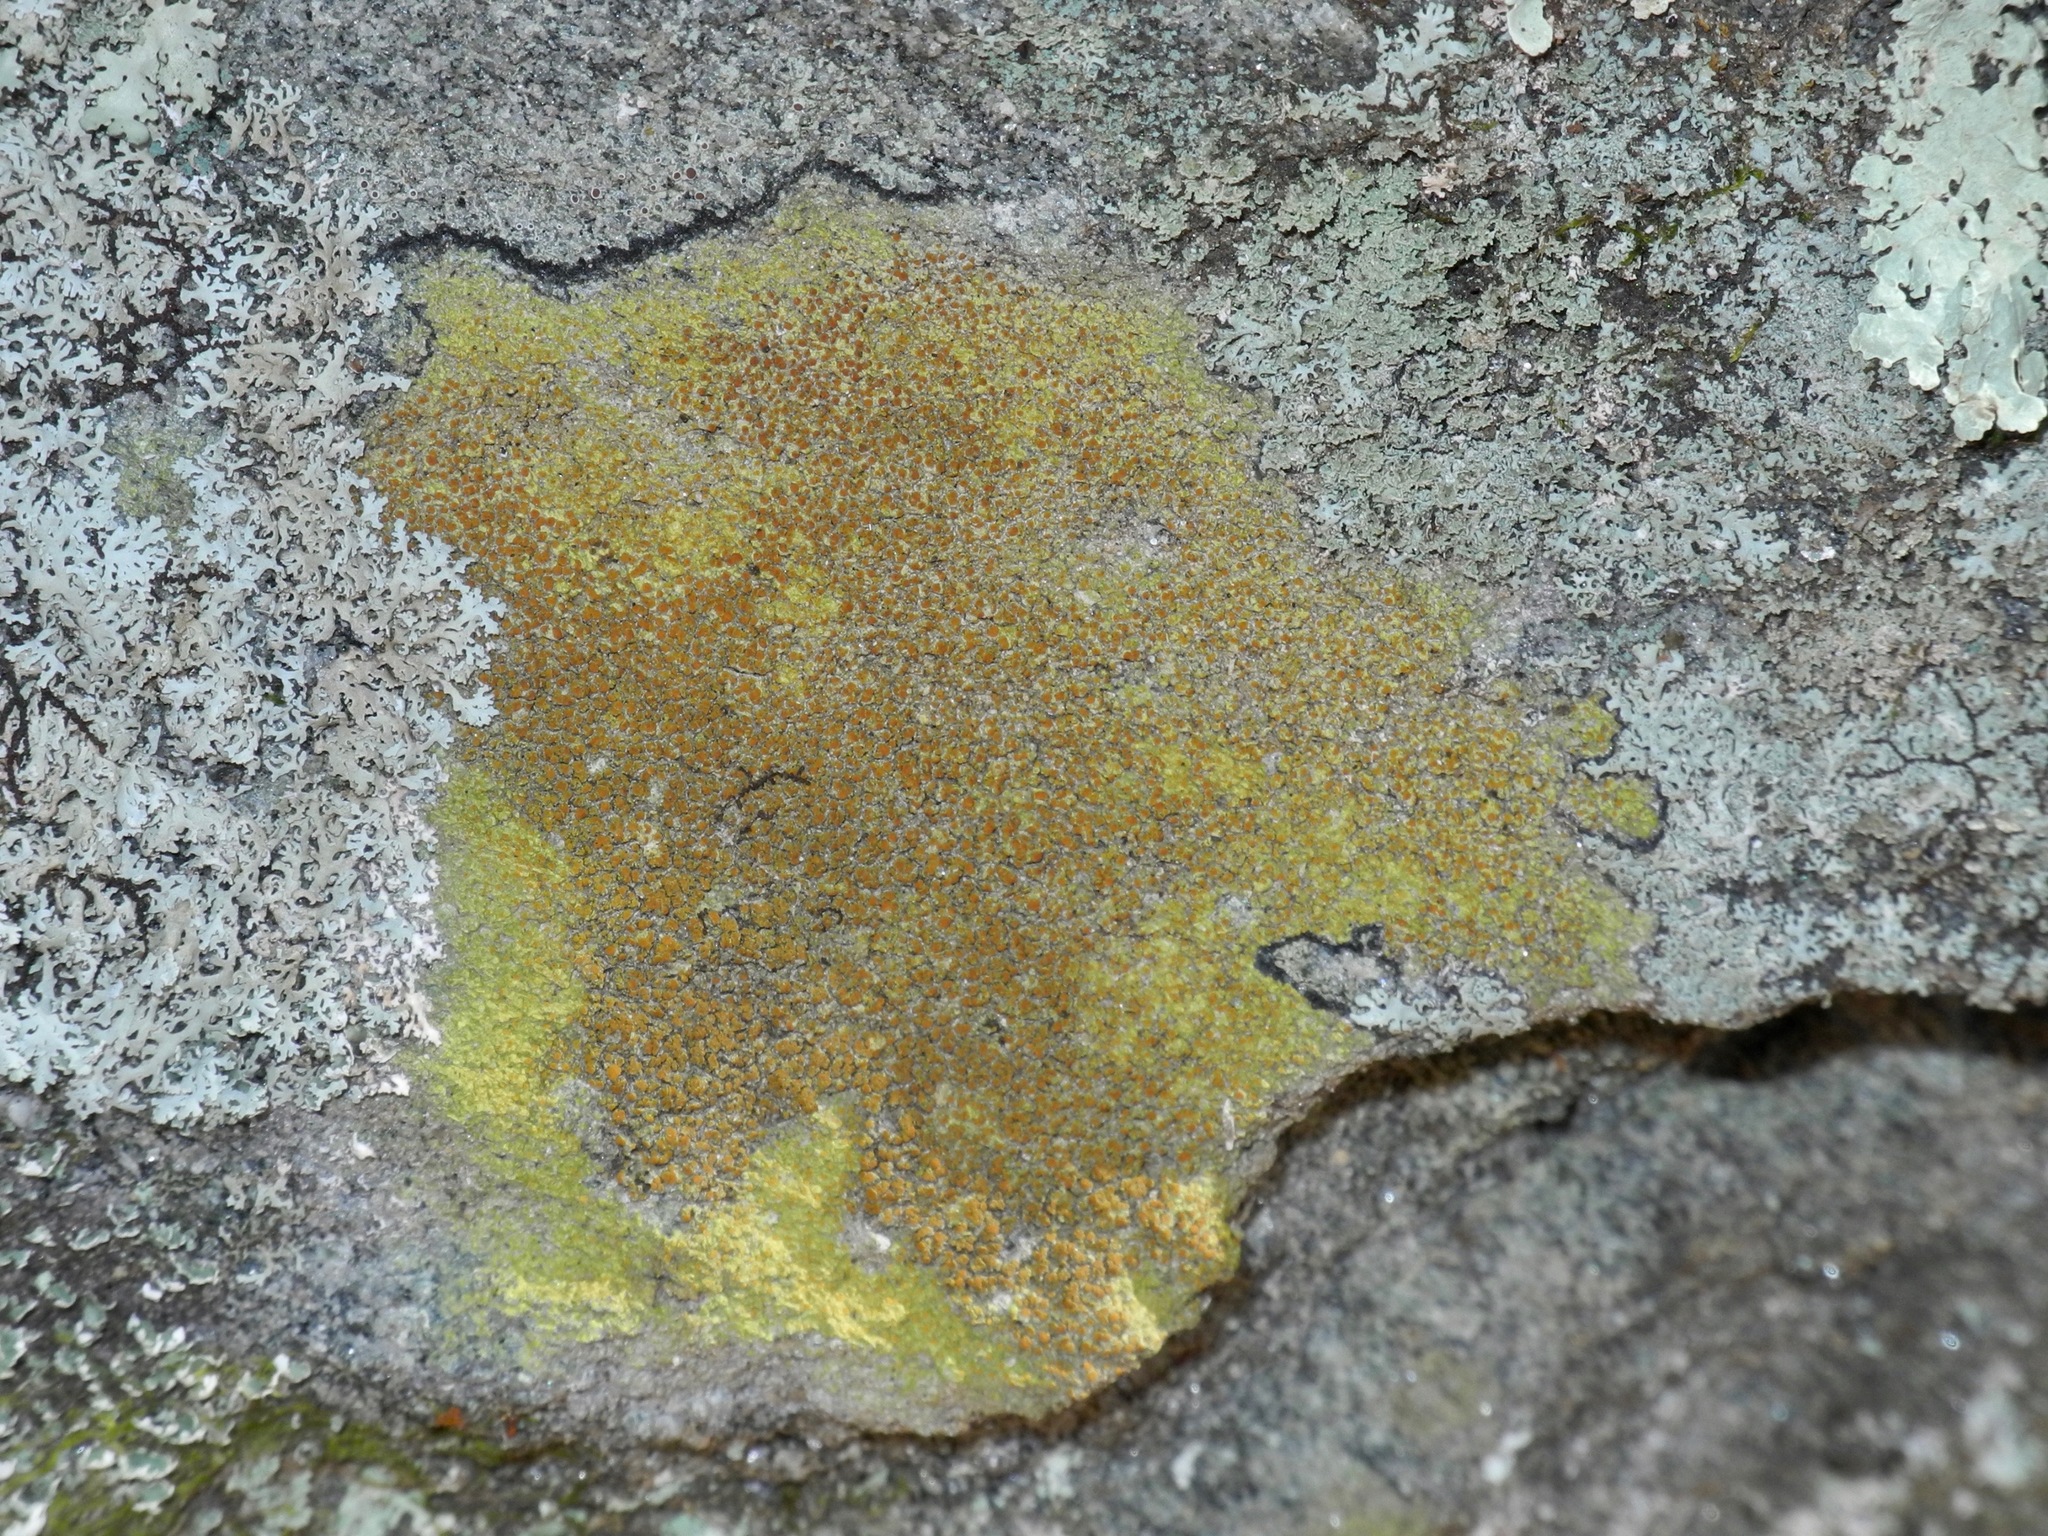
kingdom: Fungi
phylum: Ascomycota
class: Lecanoromycetes
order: Teloschistales
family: Teloschistaceae
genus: Xanthocarpia
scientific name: Xanthocarpia feracissima
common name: Sidewalk firedot
